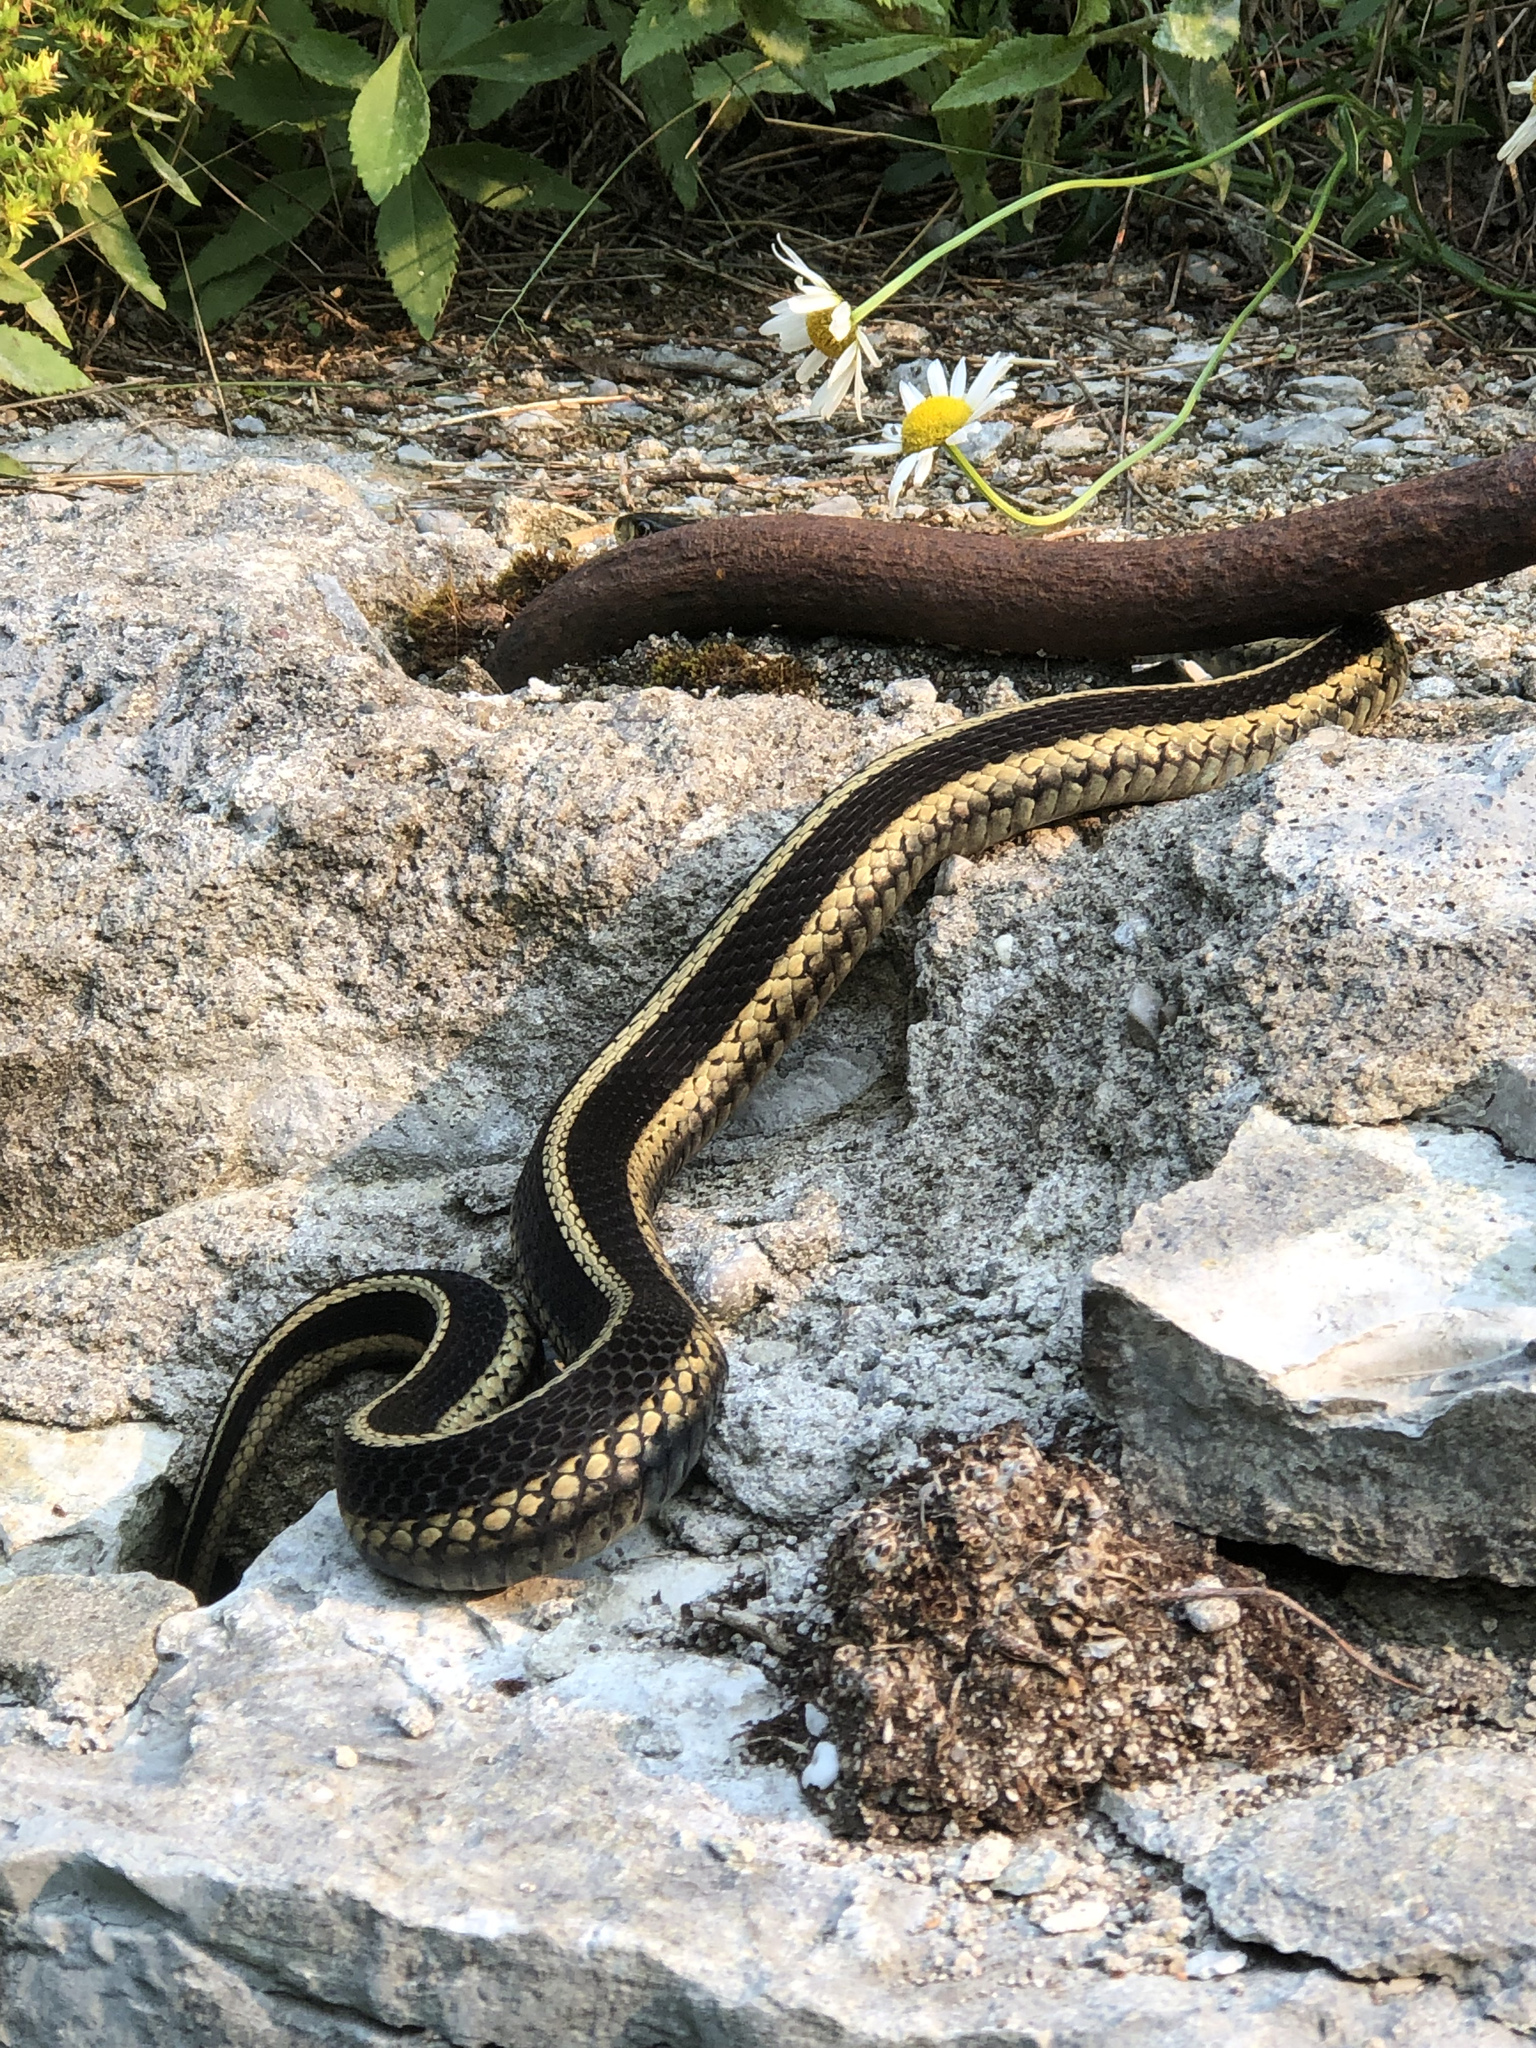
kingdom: Animalia
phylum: Chordata
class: Squamata
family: Colubridae
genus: Thamnophis
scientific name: Thamnophis sirtalis
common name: Common garter snake
